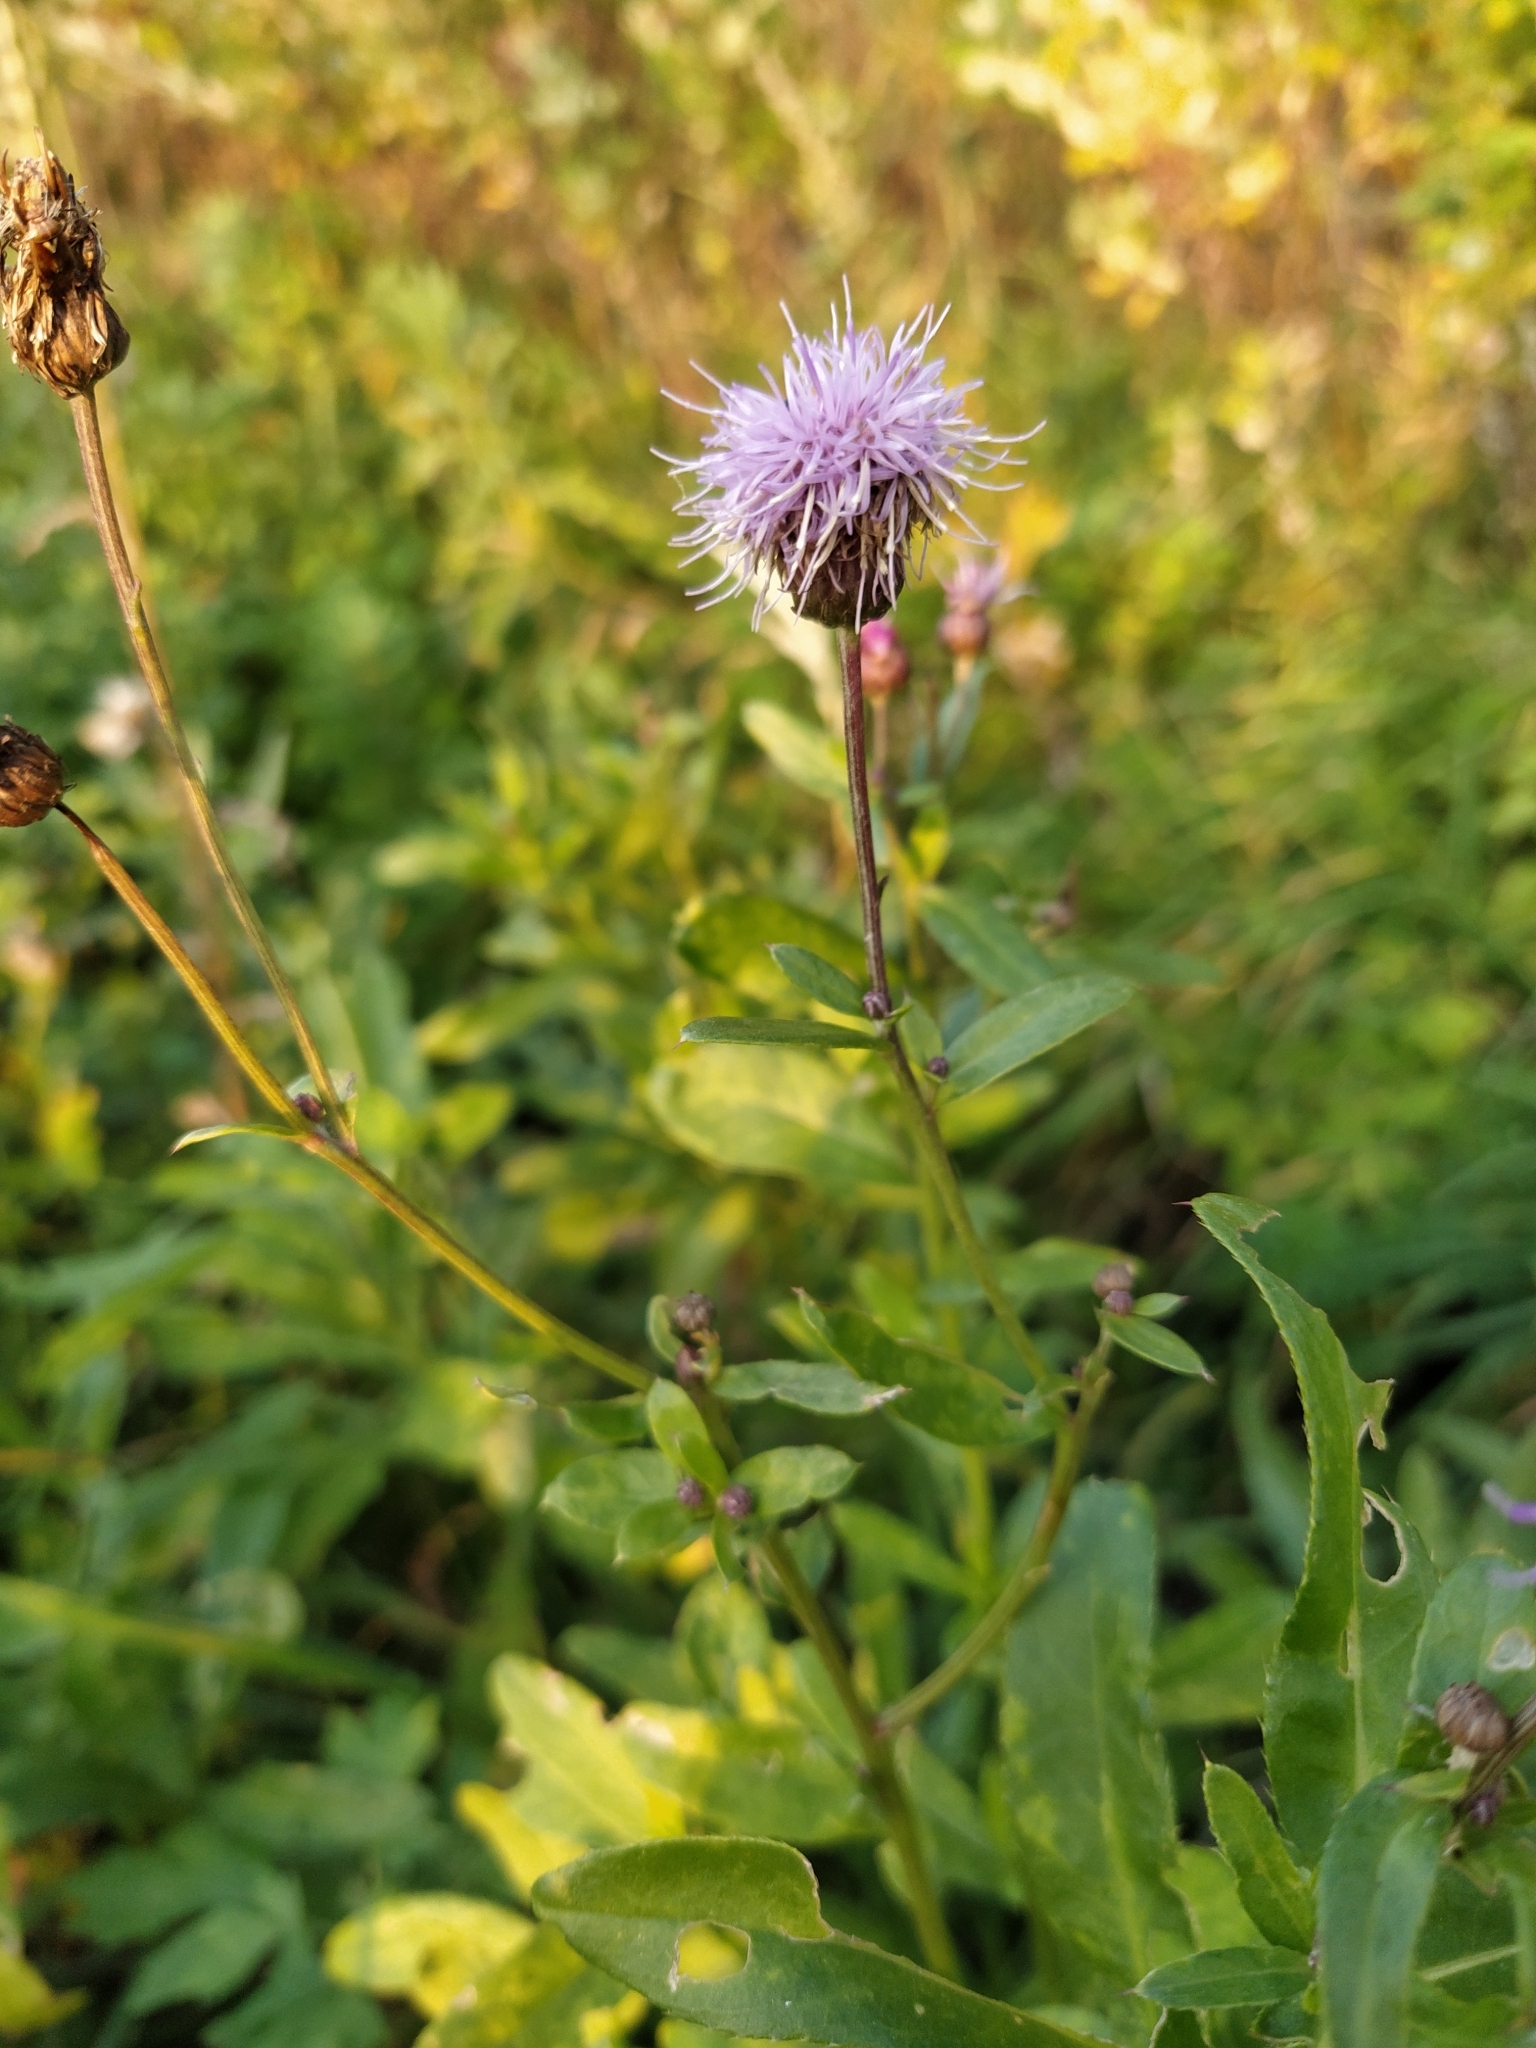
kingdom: Plantae
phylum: Tracheophyta
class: Magnoliopsida
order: Asterales
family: Asteraceae
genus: Cirsium
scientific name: Cirsium arvense
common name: Creeping thistle
